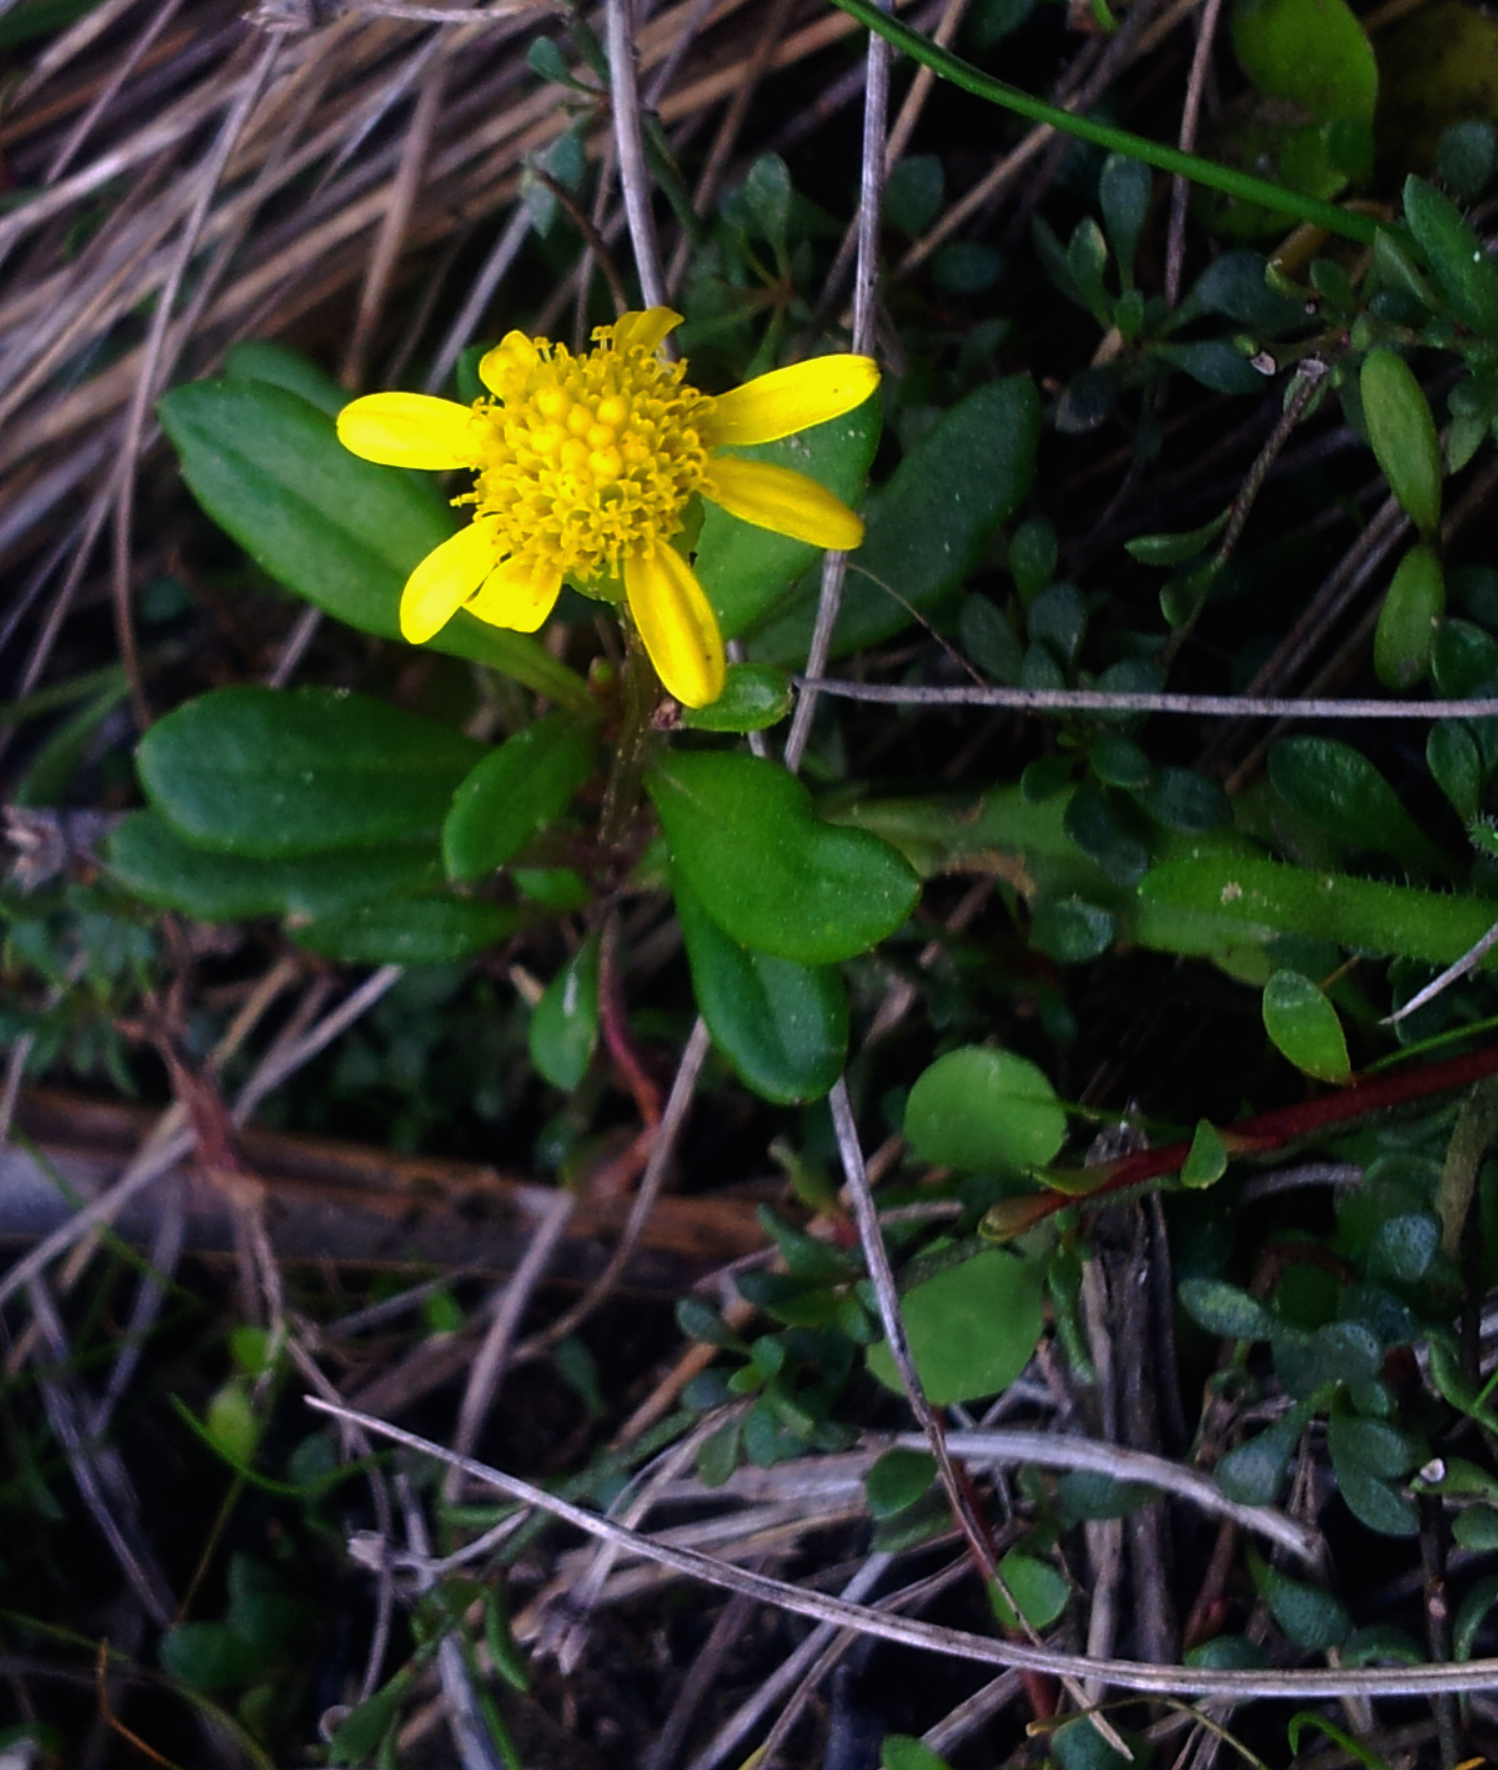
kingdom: Plantae
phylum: Tracheophyta
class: Magnoliopsida
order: Asterales
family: Asteraceae
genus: Senecio
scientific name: Senecio lautus
